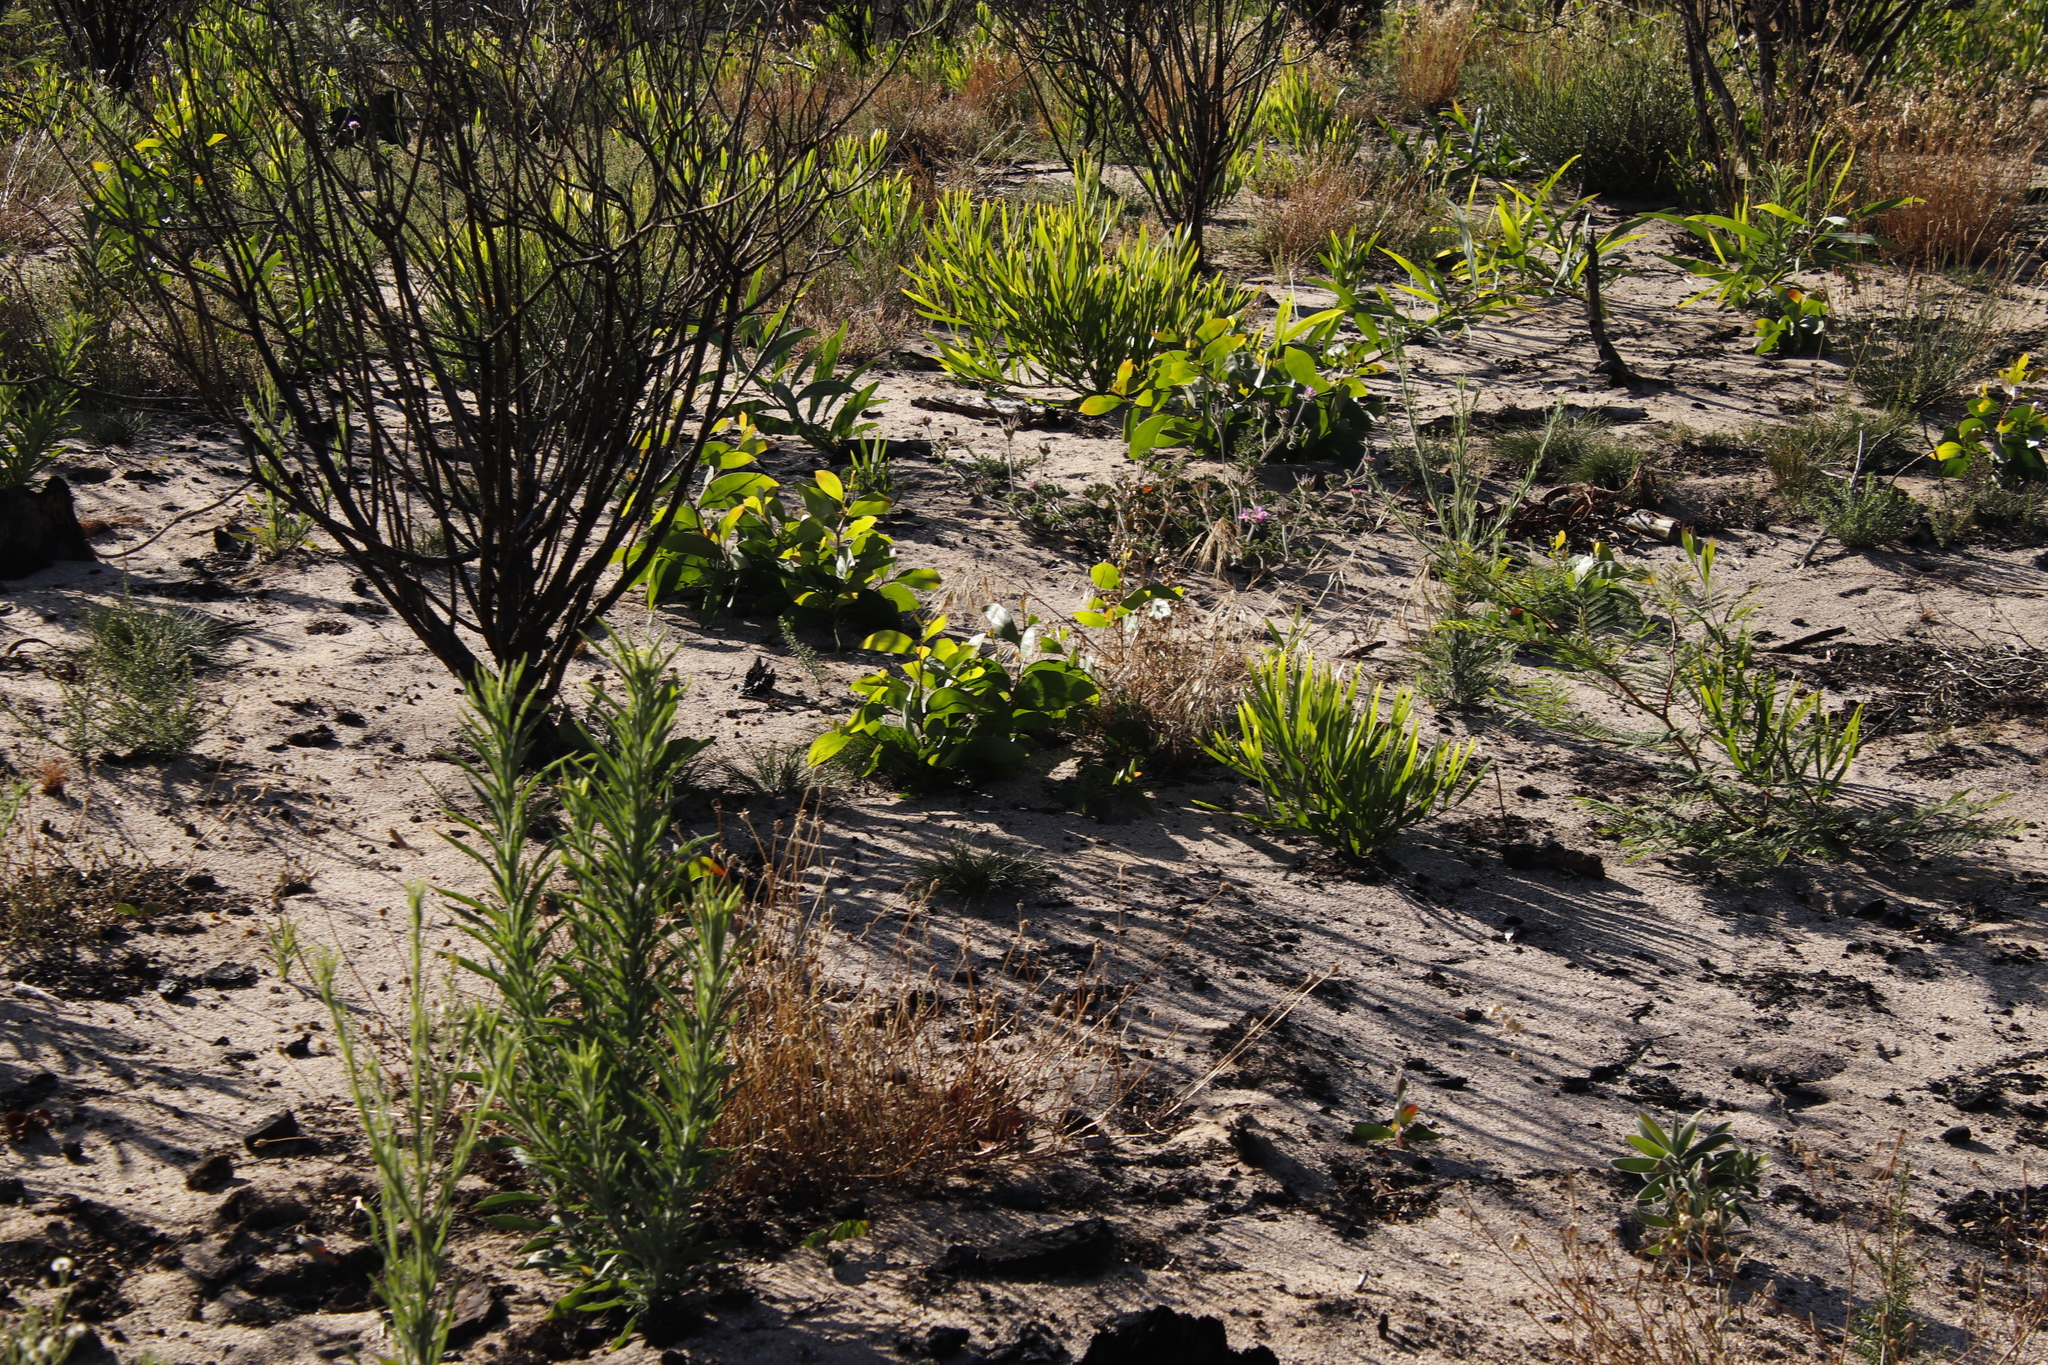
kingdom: Plantae
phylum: Tracheophyta
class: Magnoliopsida
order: Fabales
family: Fabaceae
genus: Acacia
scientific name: Acacia pycnantha
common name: Golden wattle
